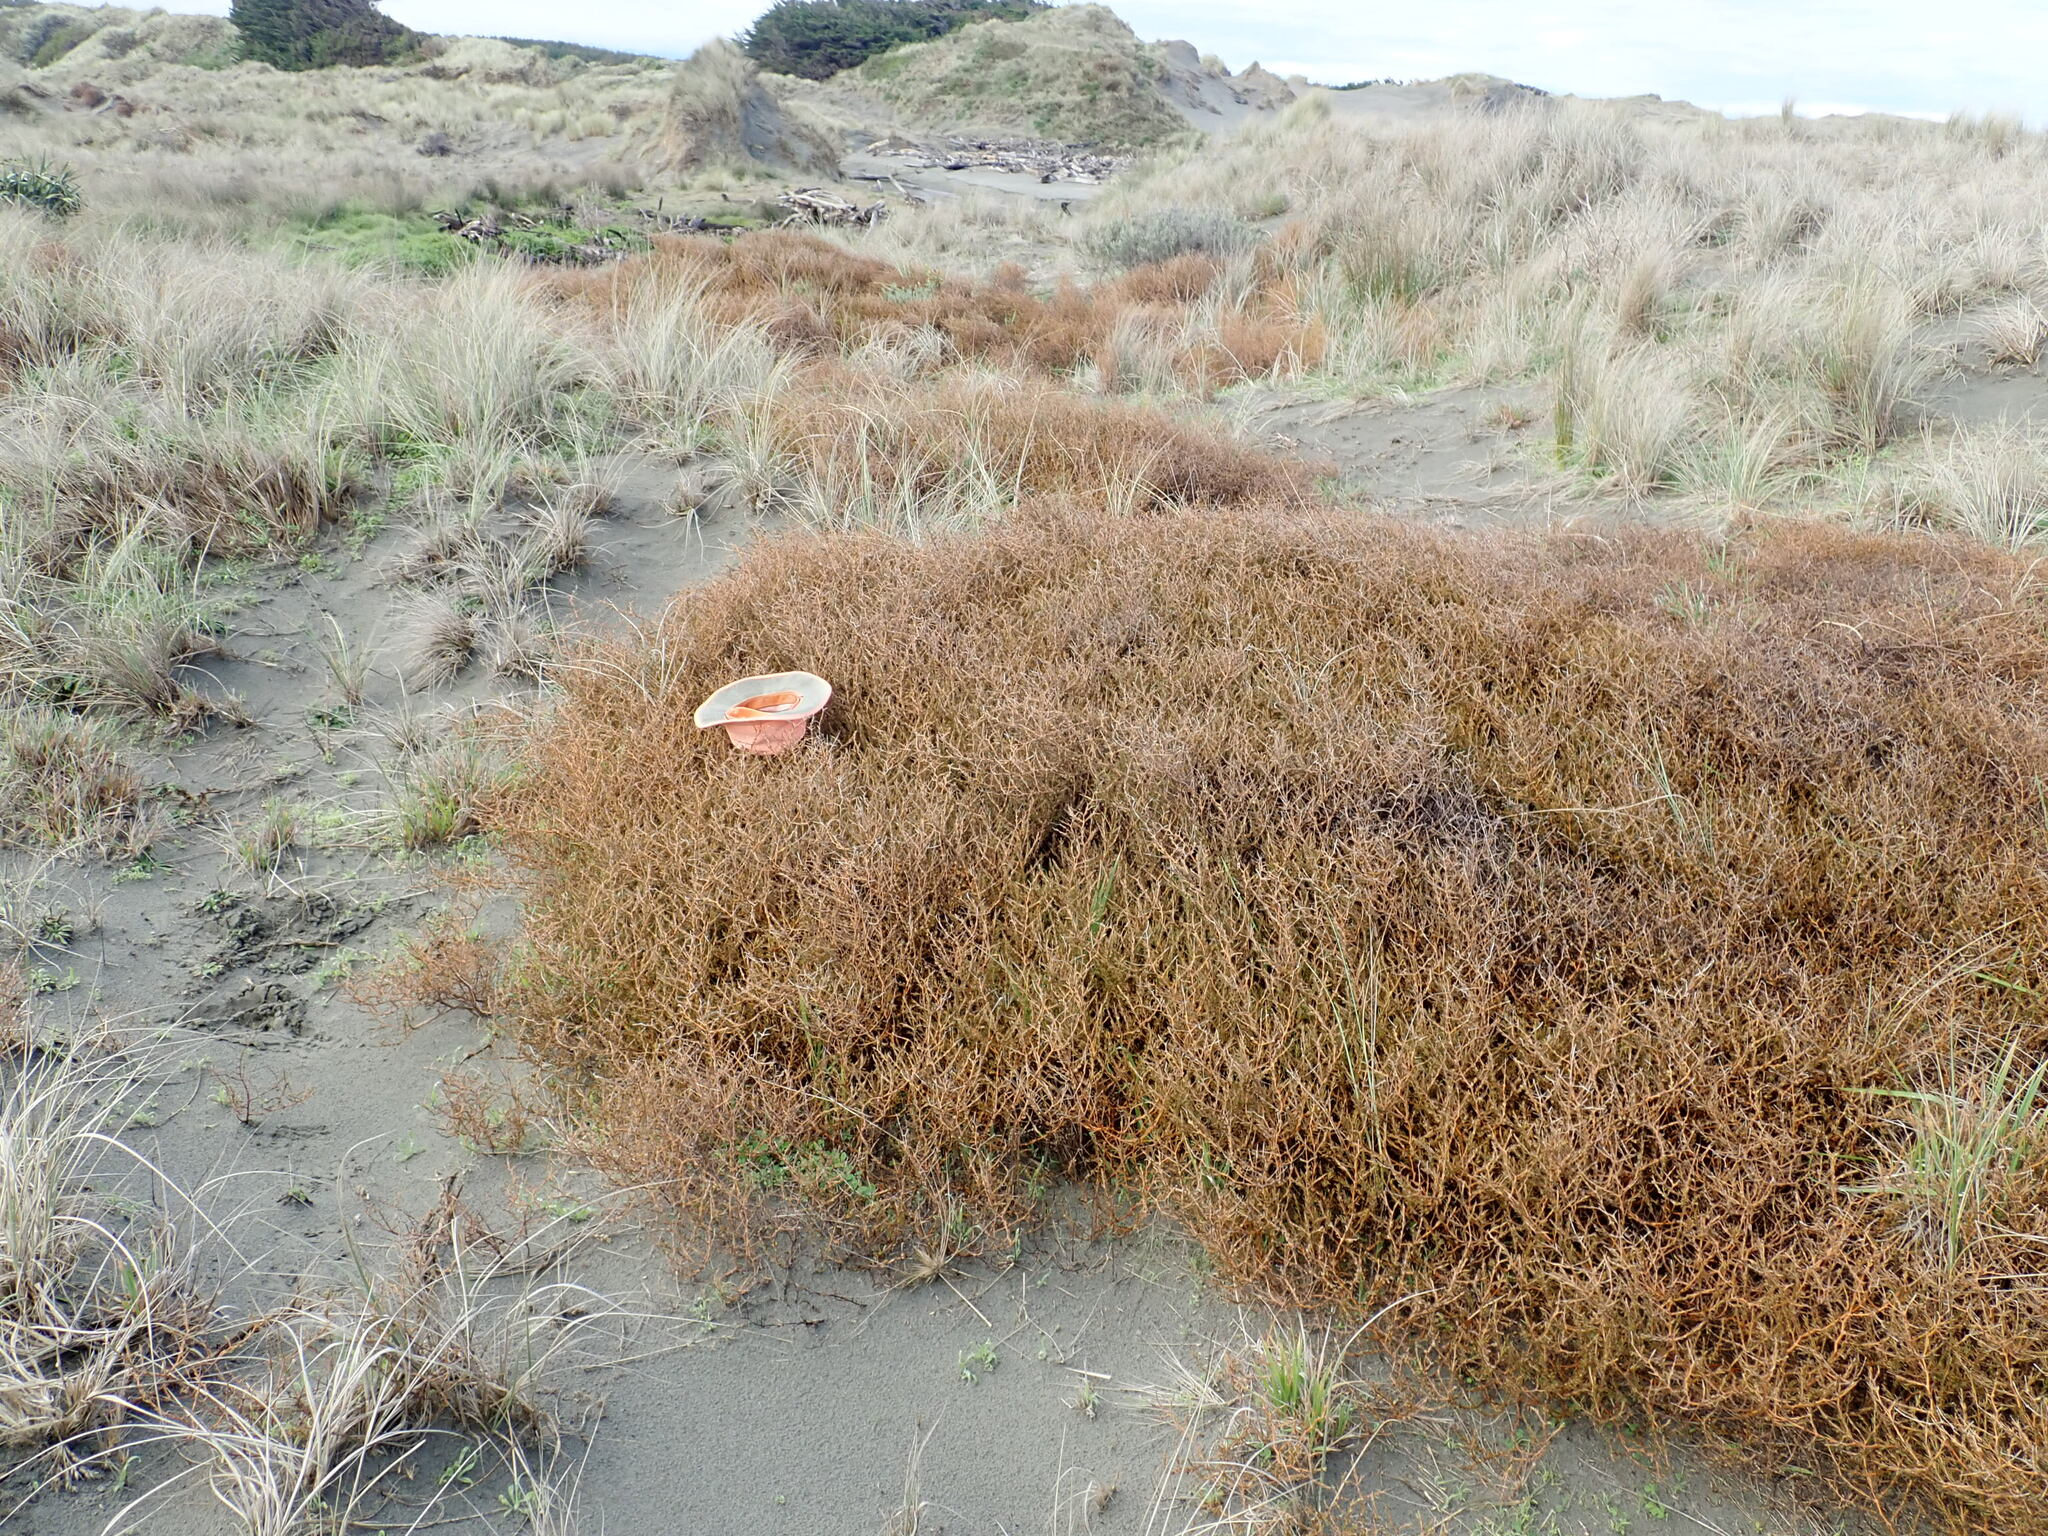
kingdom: Plantae
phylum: Tracheophyta
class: Magnoliopsida
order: Gentianales
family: Rubiaceae
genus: Coprosma
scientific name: Coprosma acerosa
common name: Sand coprosma
